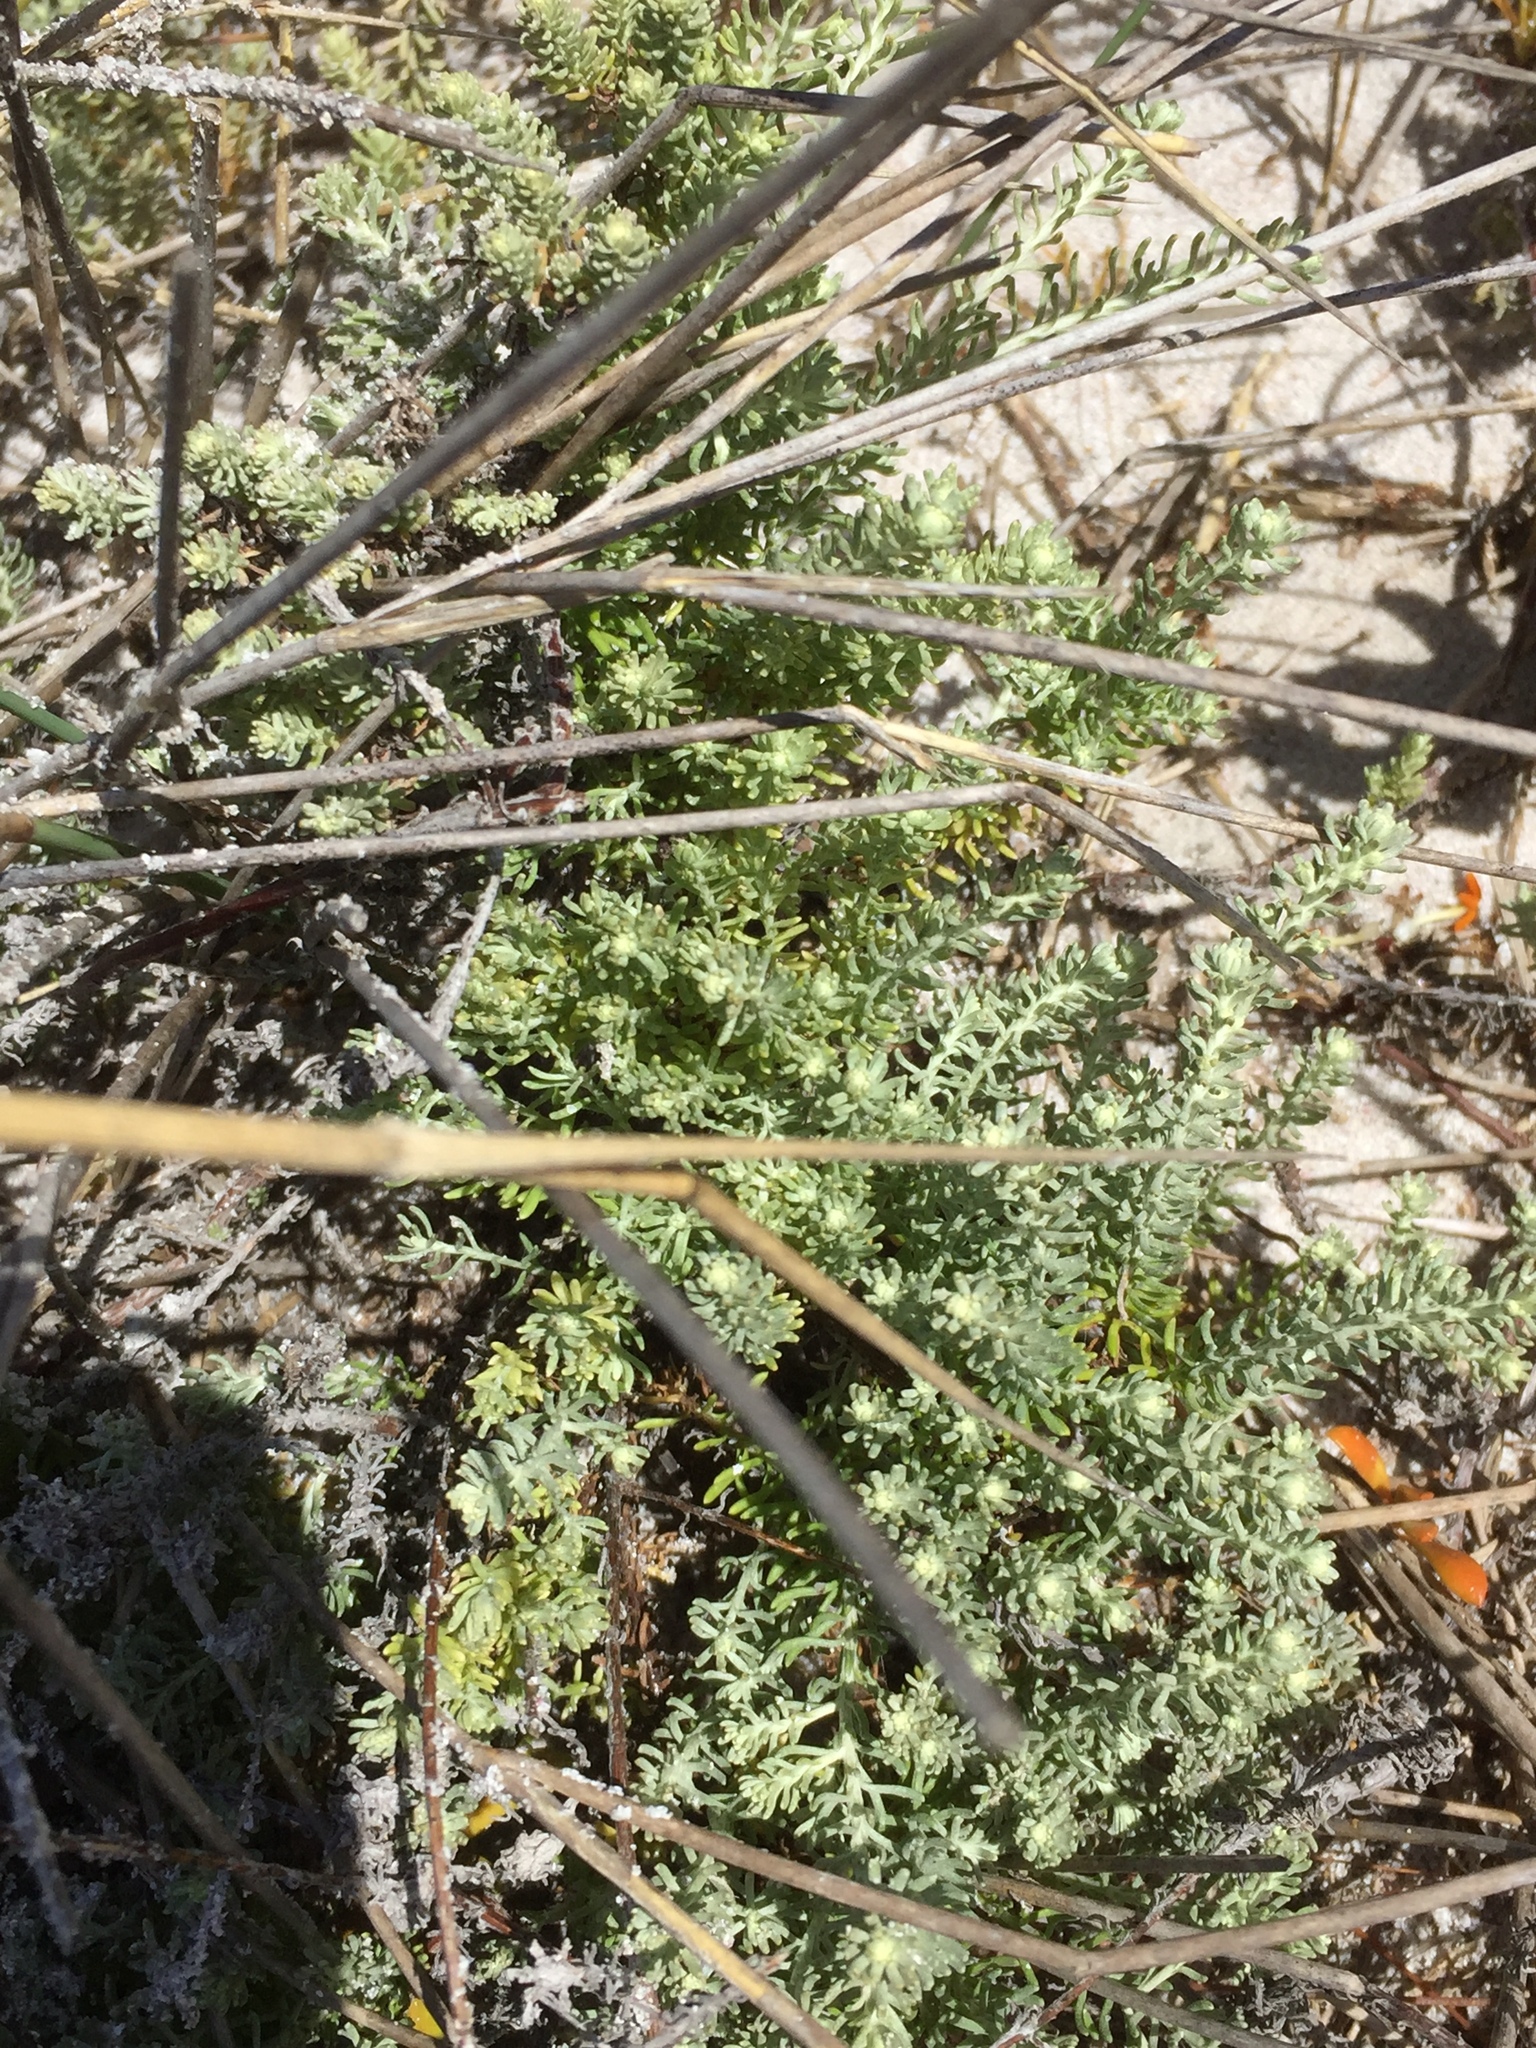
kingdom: Plantae
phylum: Tracheophyta
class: Magnoliopsida
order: Asterales
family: Asteraceae
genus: Eriocephalus
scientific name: Eriocephalus racemosus
